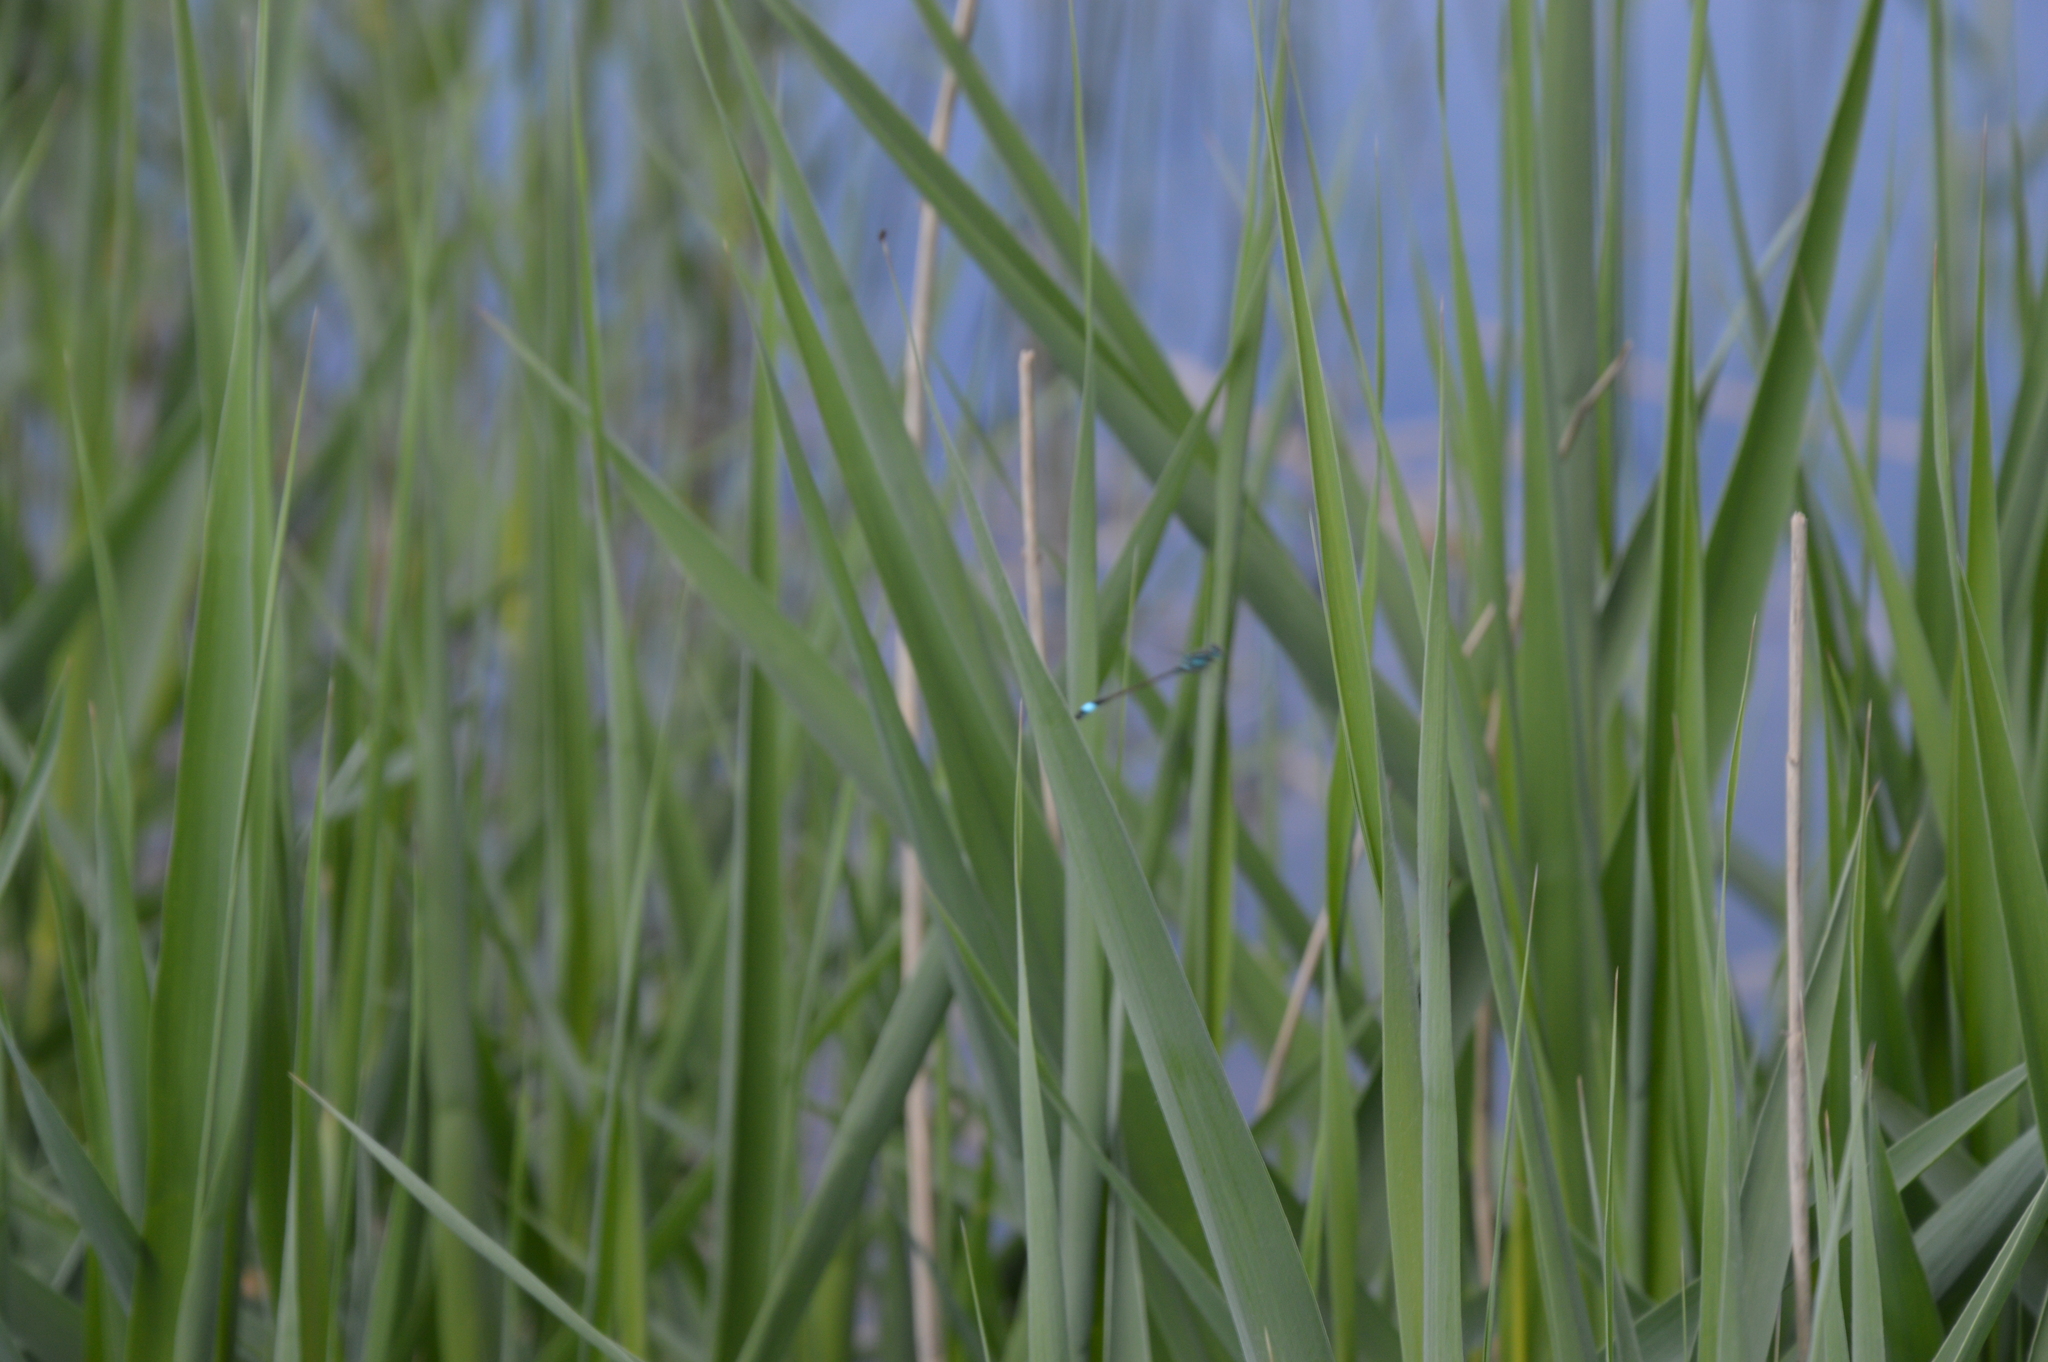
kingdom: Animalia
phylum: Arthropoda
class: Insecta
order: Odonata
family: Coenagrionidae
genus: Ischnura
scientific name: Ischnura elegans
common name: Blue-tailed damselfly
